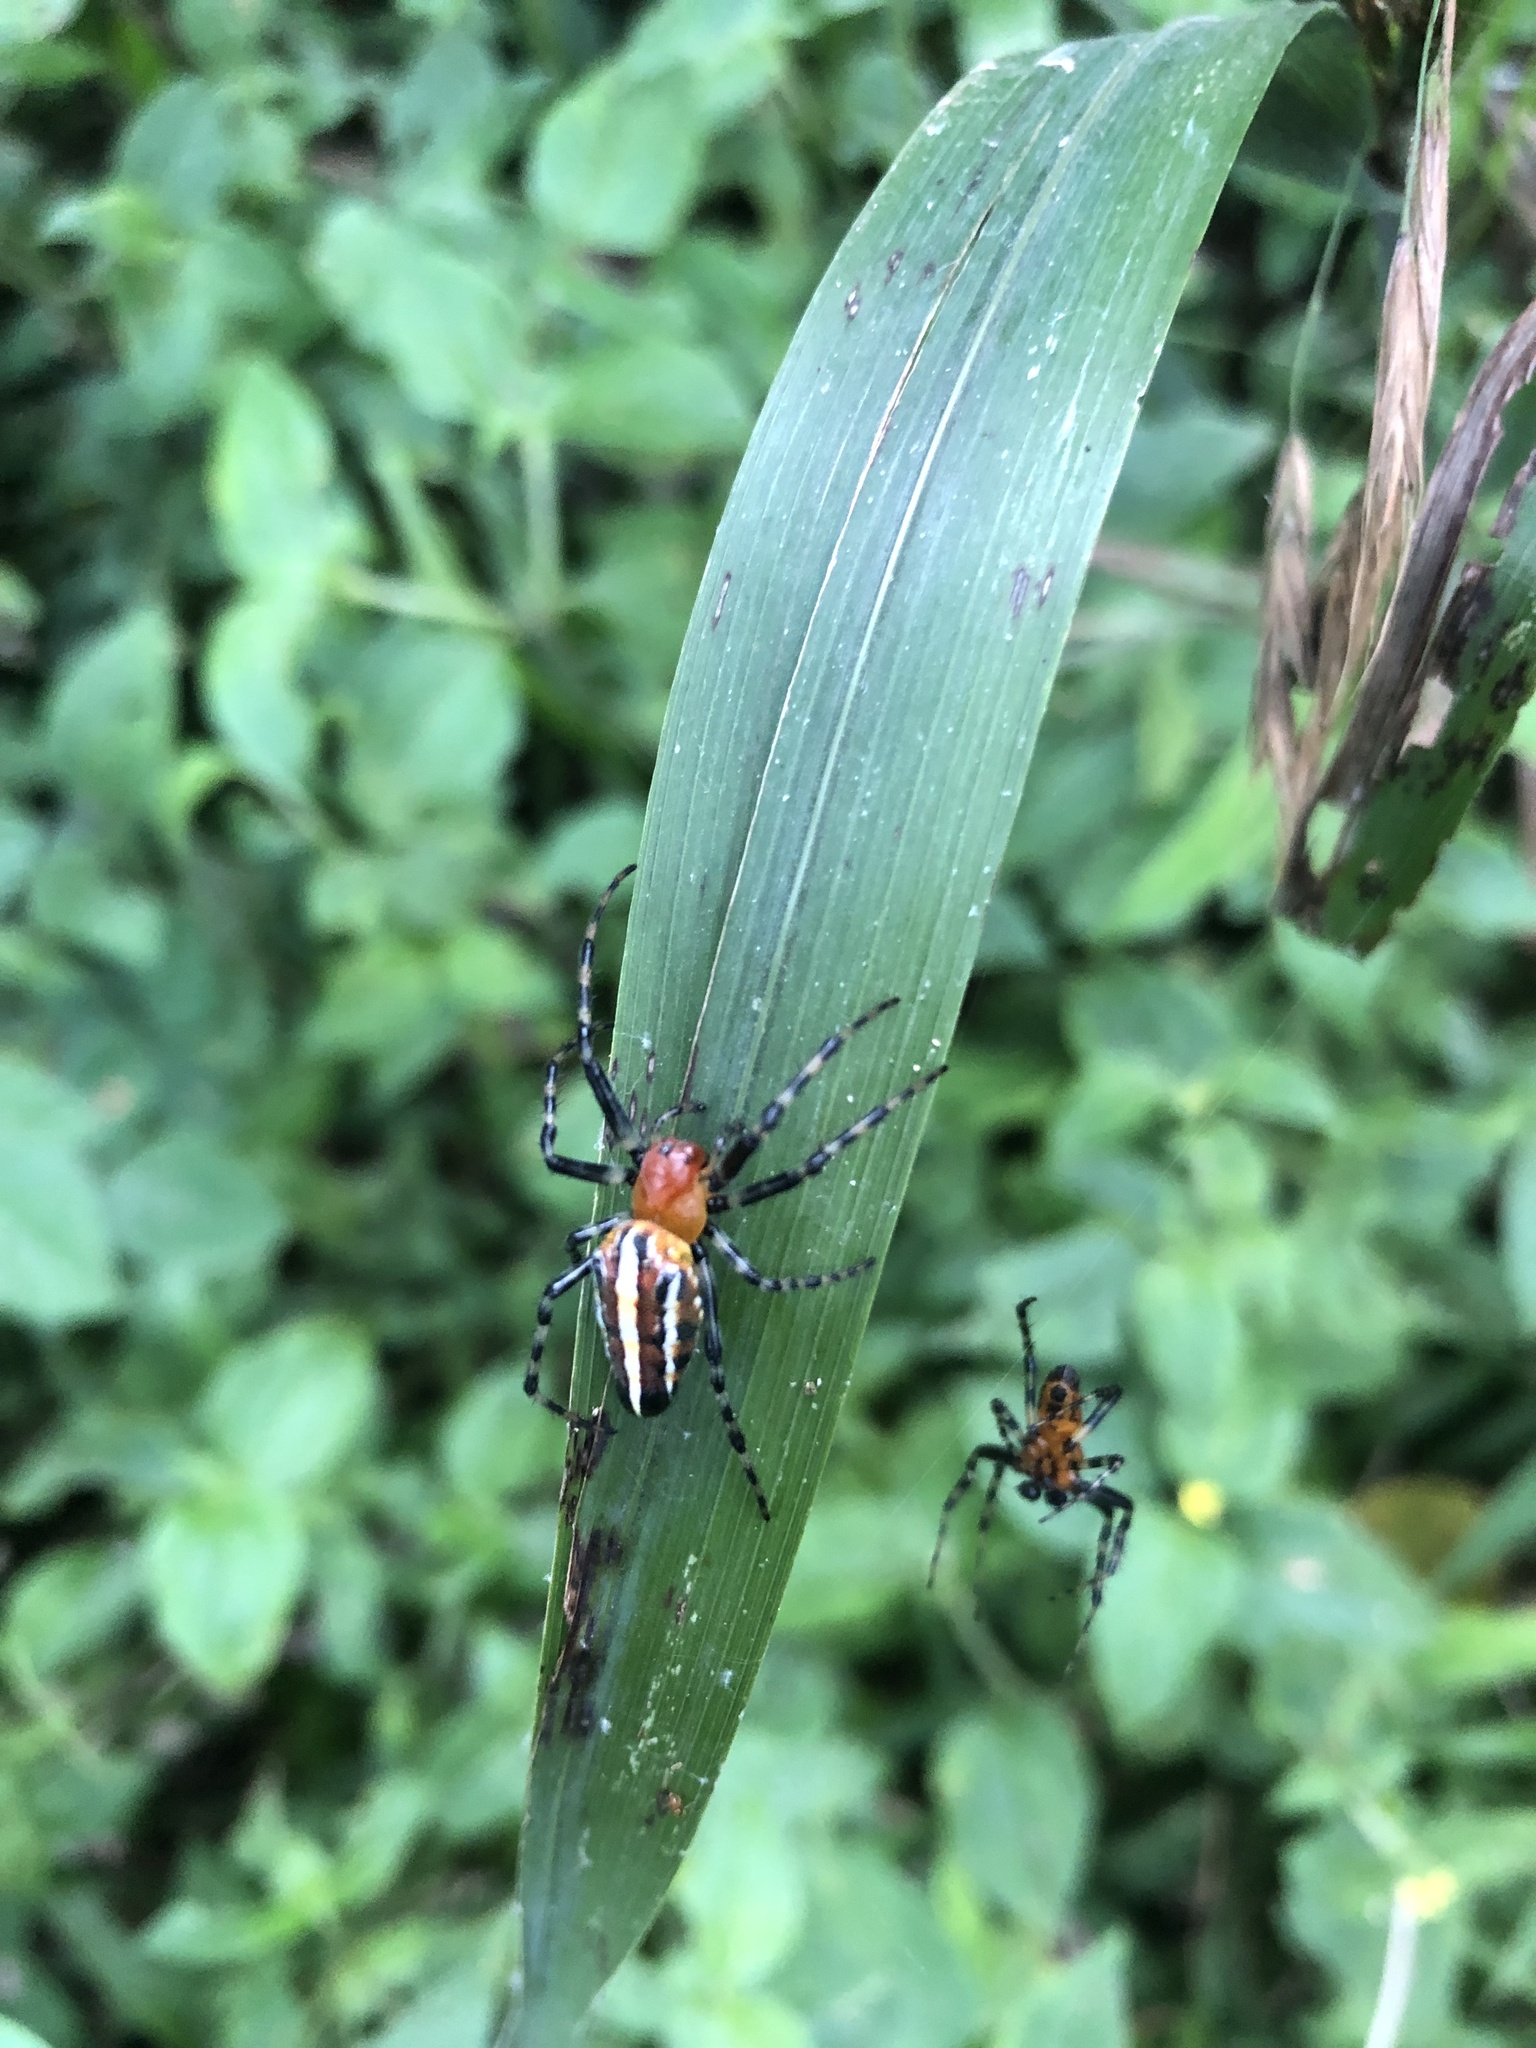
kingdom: Animalia
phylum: Arthropoda
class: Arachnida
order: Araneae
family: Araneidae
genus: Alpaida
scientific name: Alpaida grayi
